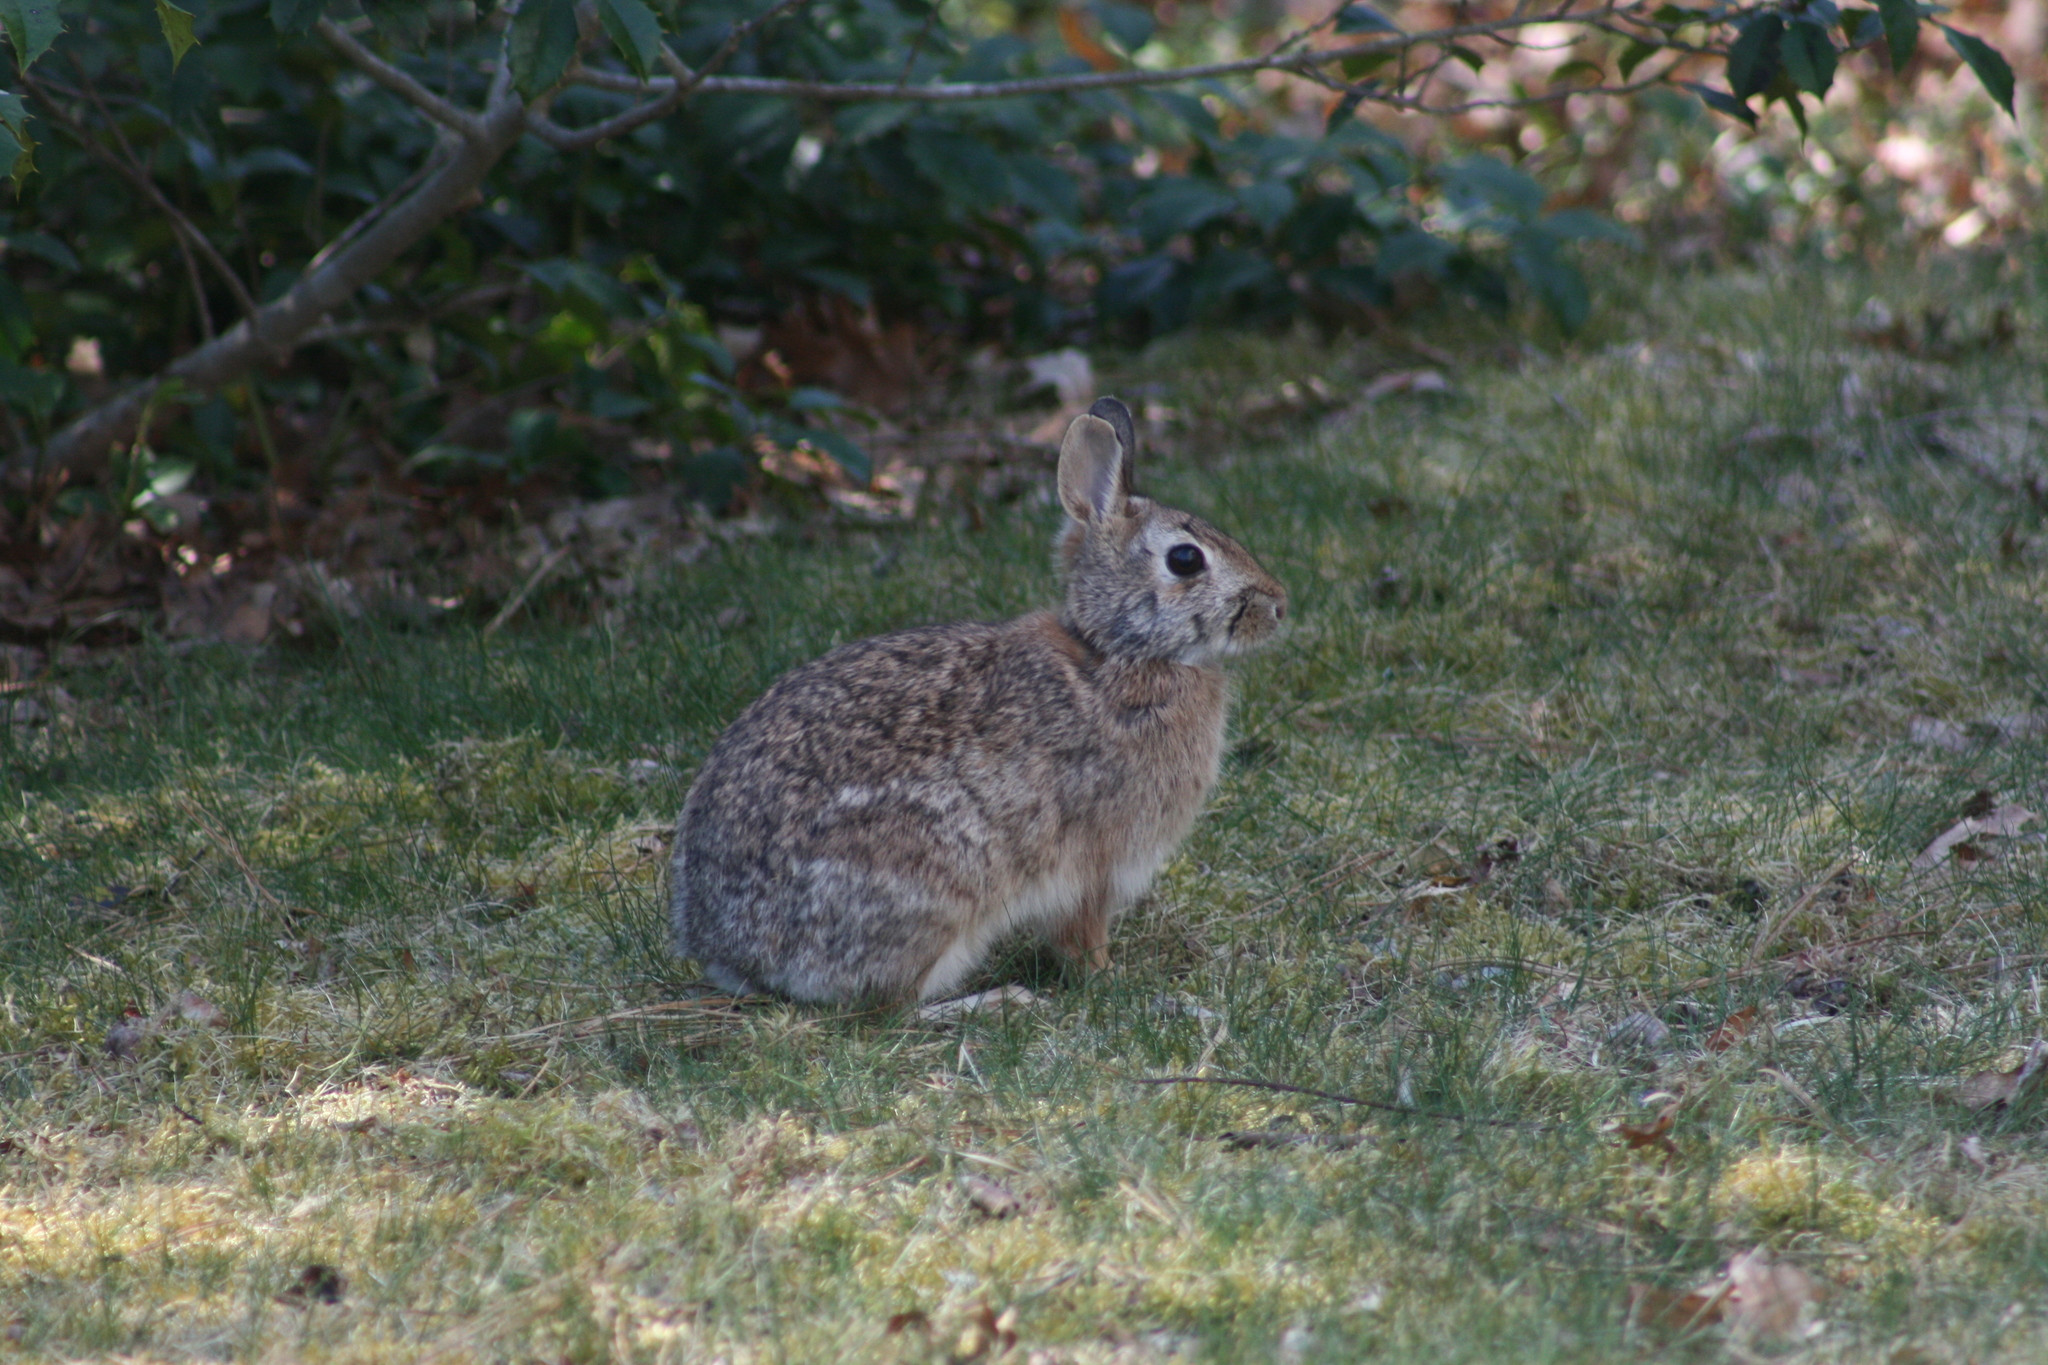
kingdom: Animalia
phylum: Chordata
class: Mammalia
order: Lagomorpha
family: Leporidae
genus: Sylvilagus
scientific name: Sylvilagus floridanus
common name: Eastern cottontail
